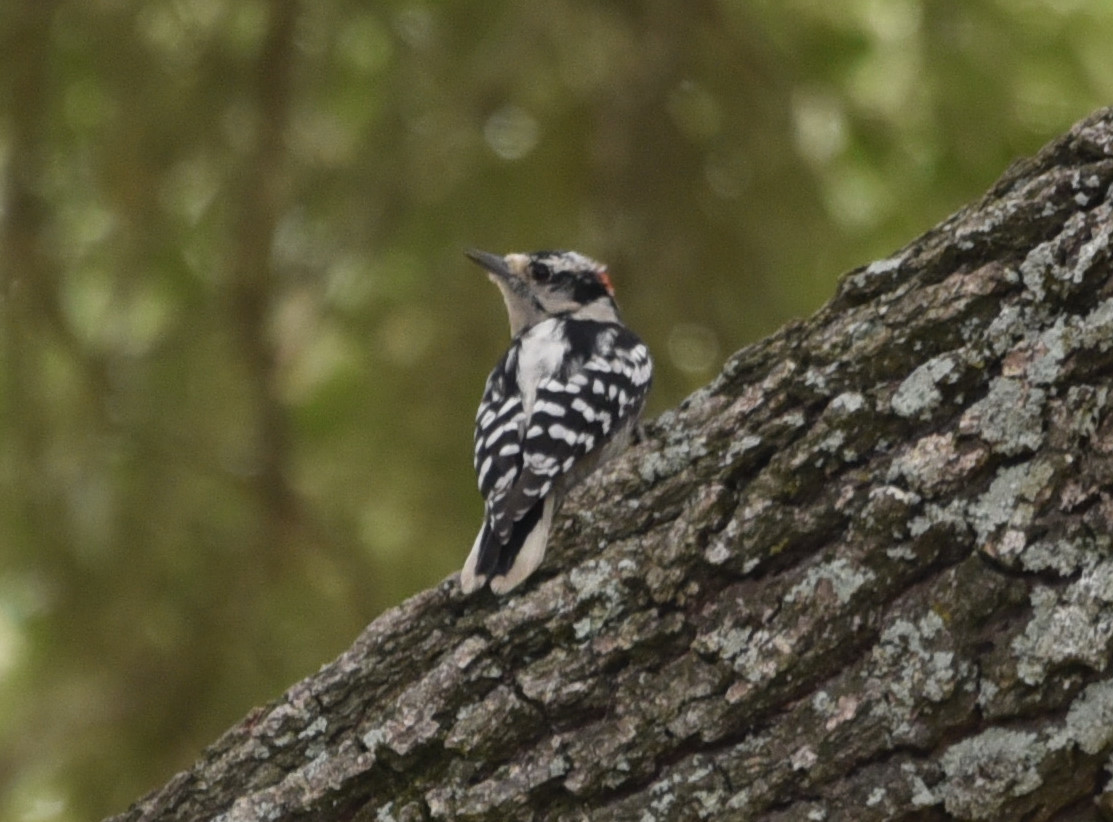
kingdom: Animalia
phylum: Chordata
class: Aves
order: Piciformes
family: Picidae
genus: Dryobates
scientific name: Dryobates pubescens
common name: Downy woodpecker
